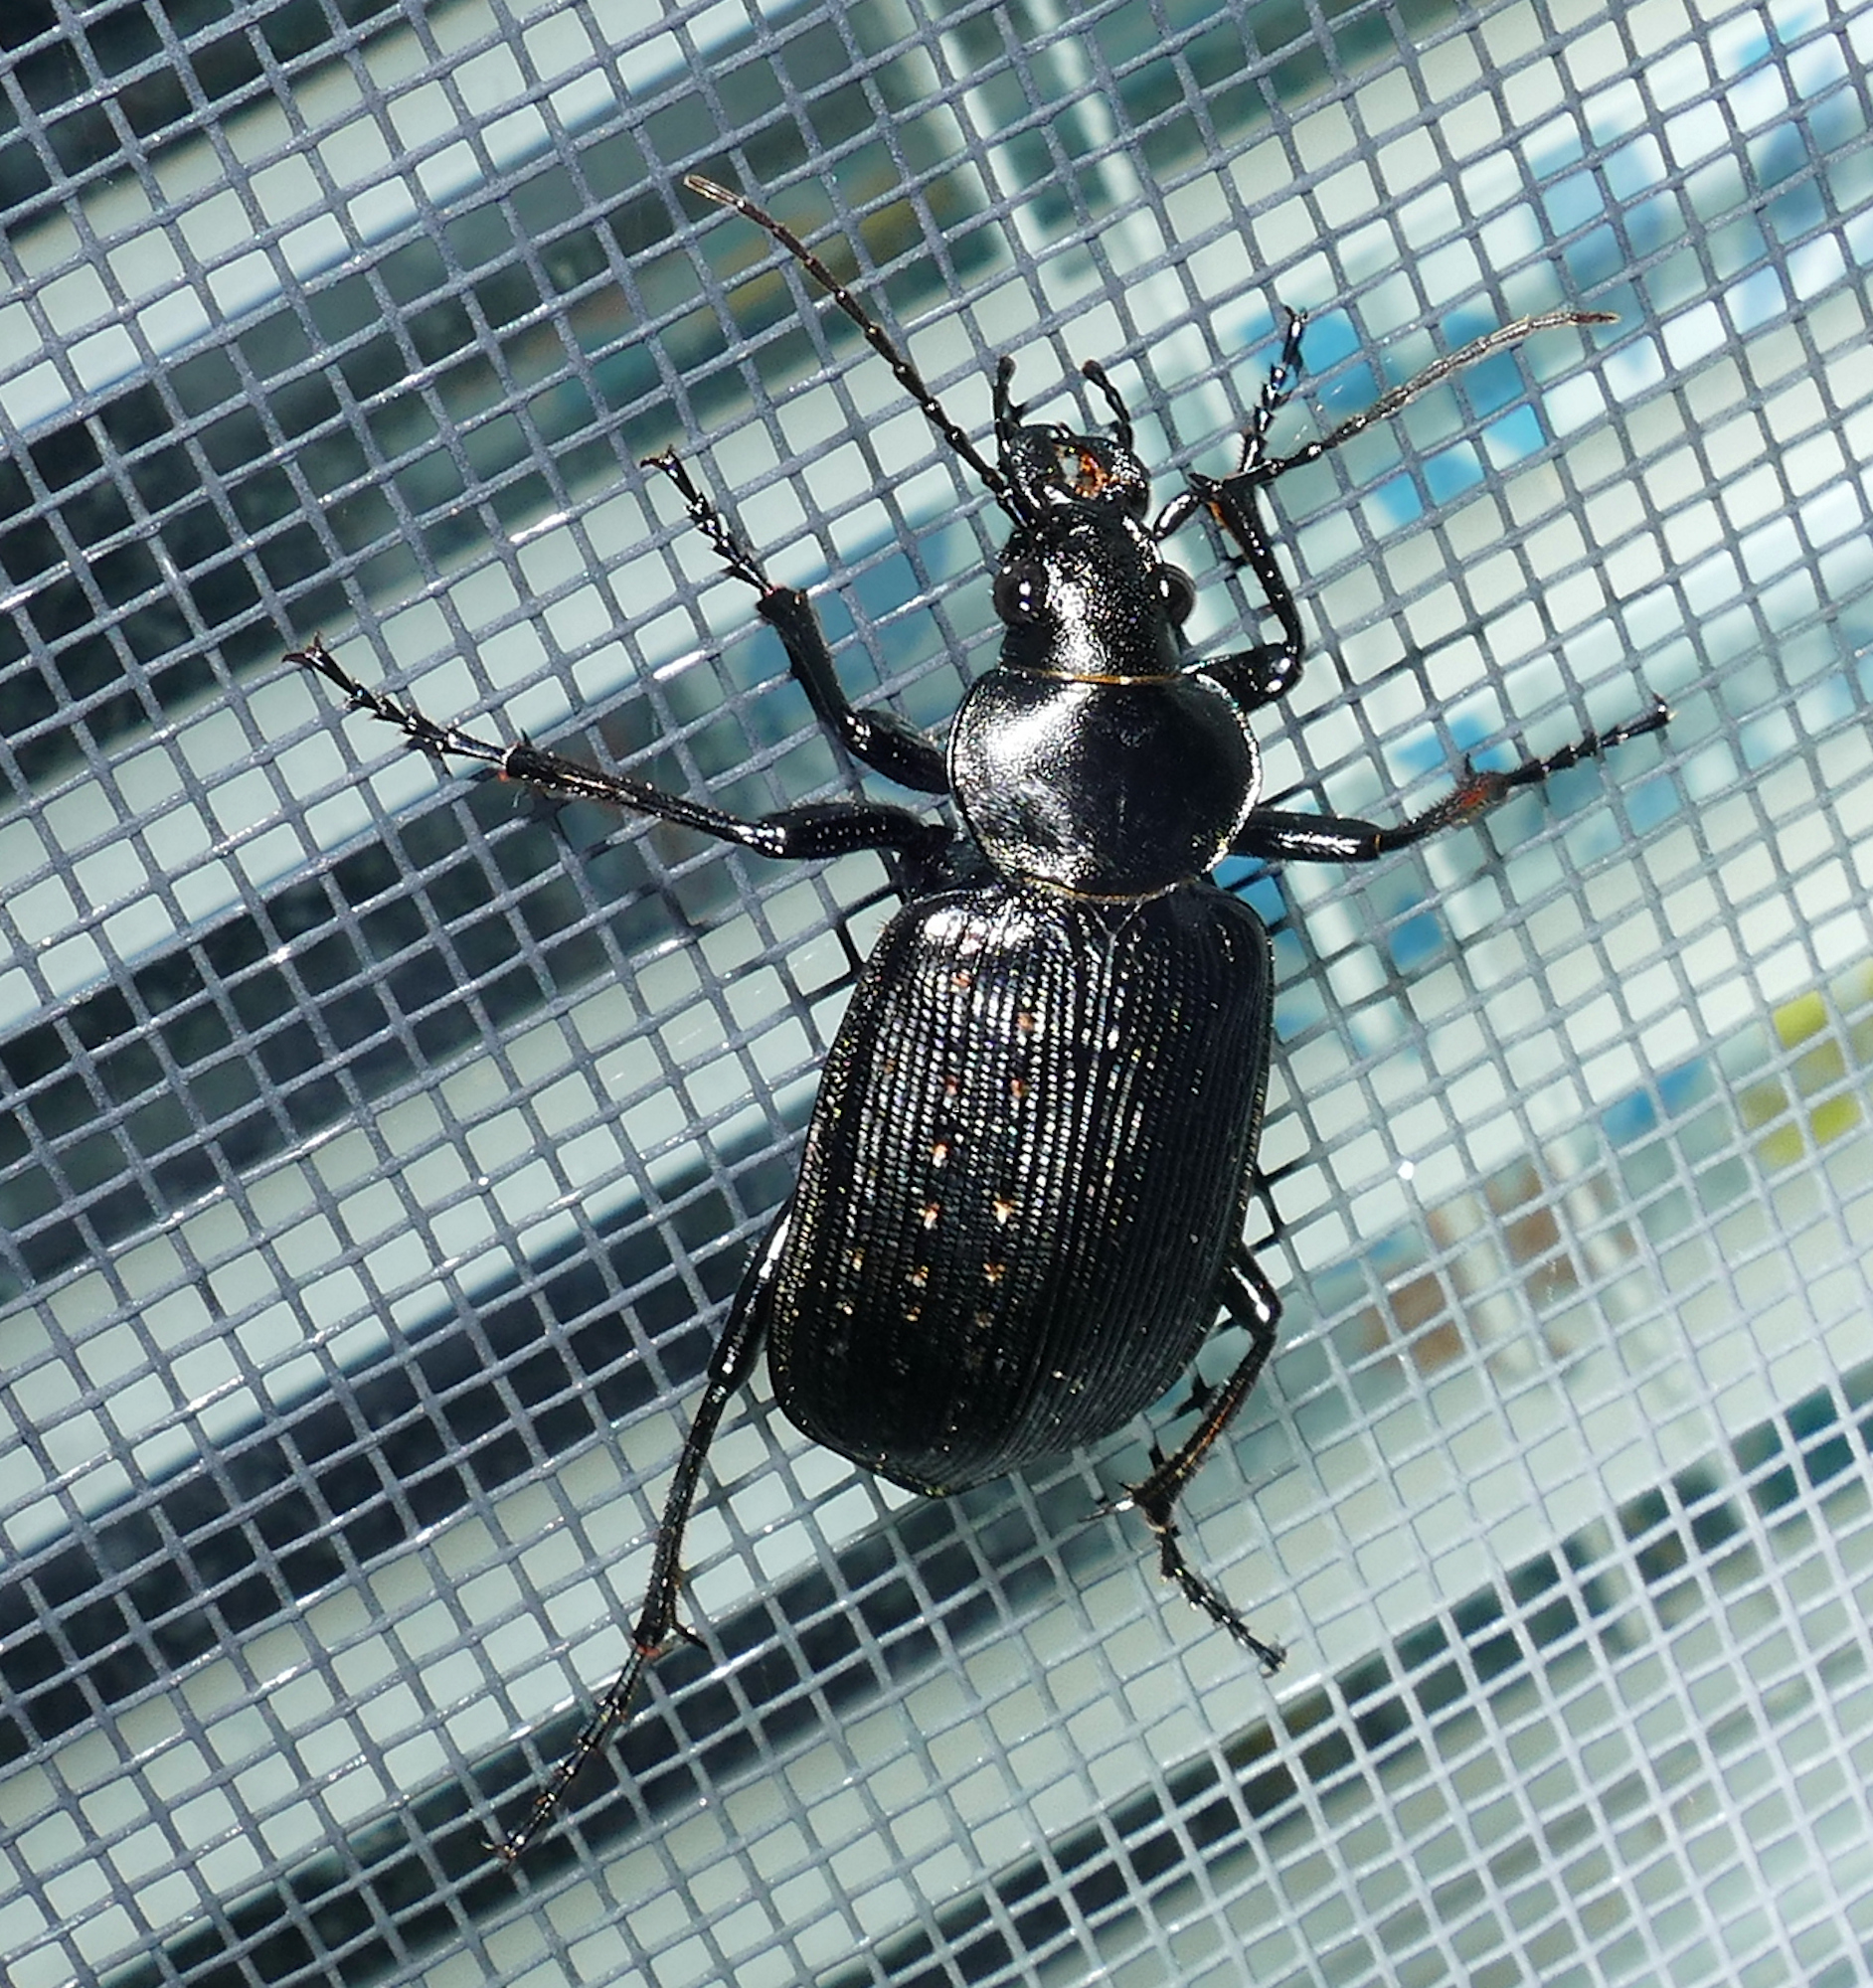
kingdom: Animalia
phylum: Arthropoda
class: Insecta
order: Coleoptera
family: Carabidae
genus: Calosoma
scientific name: Calosoma sayi
